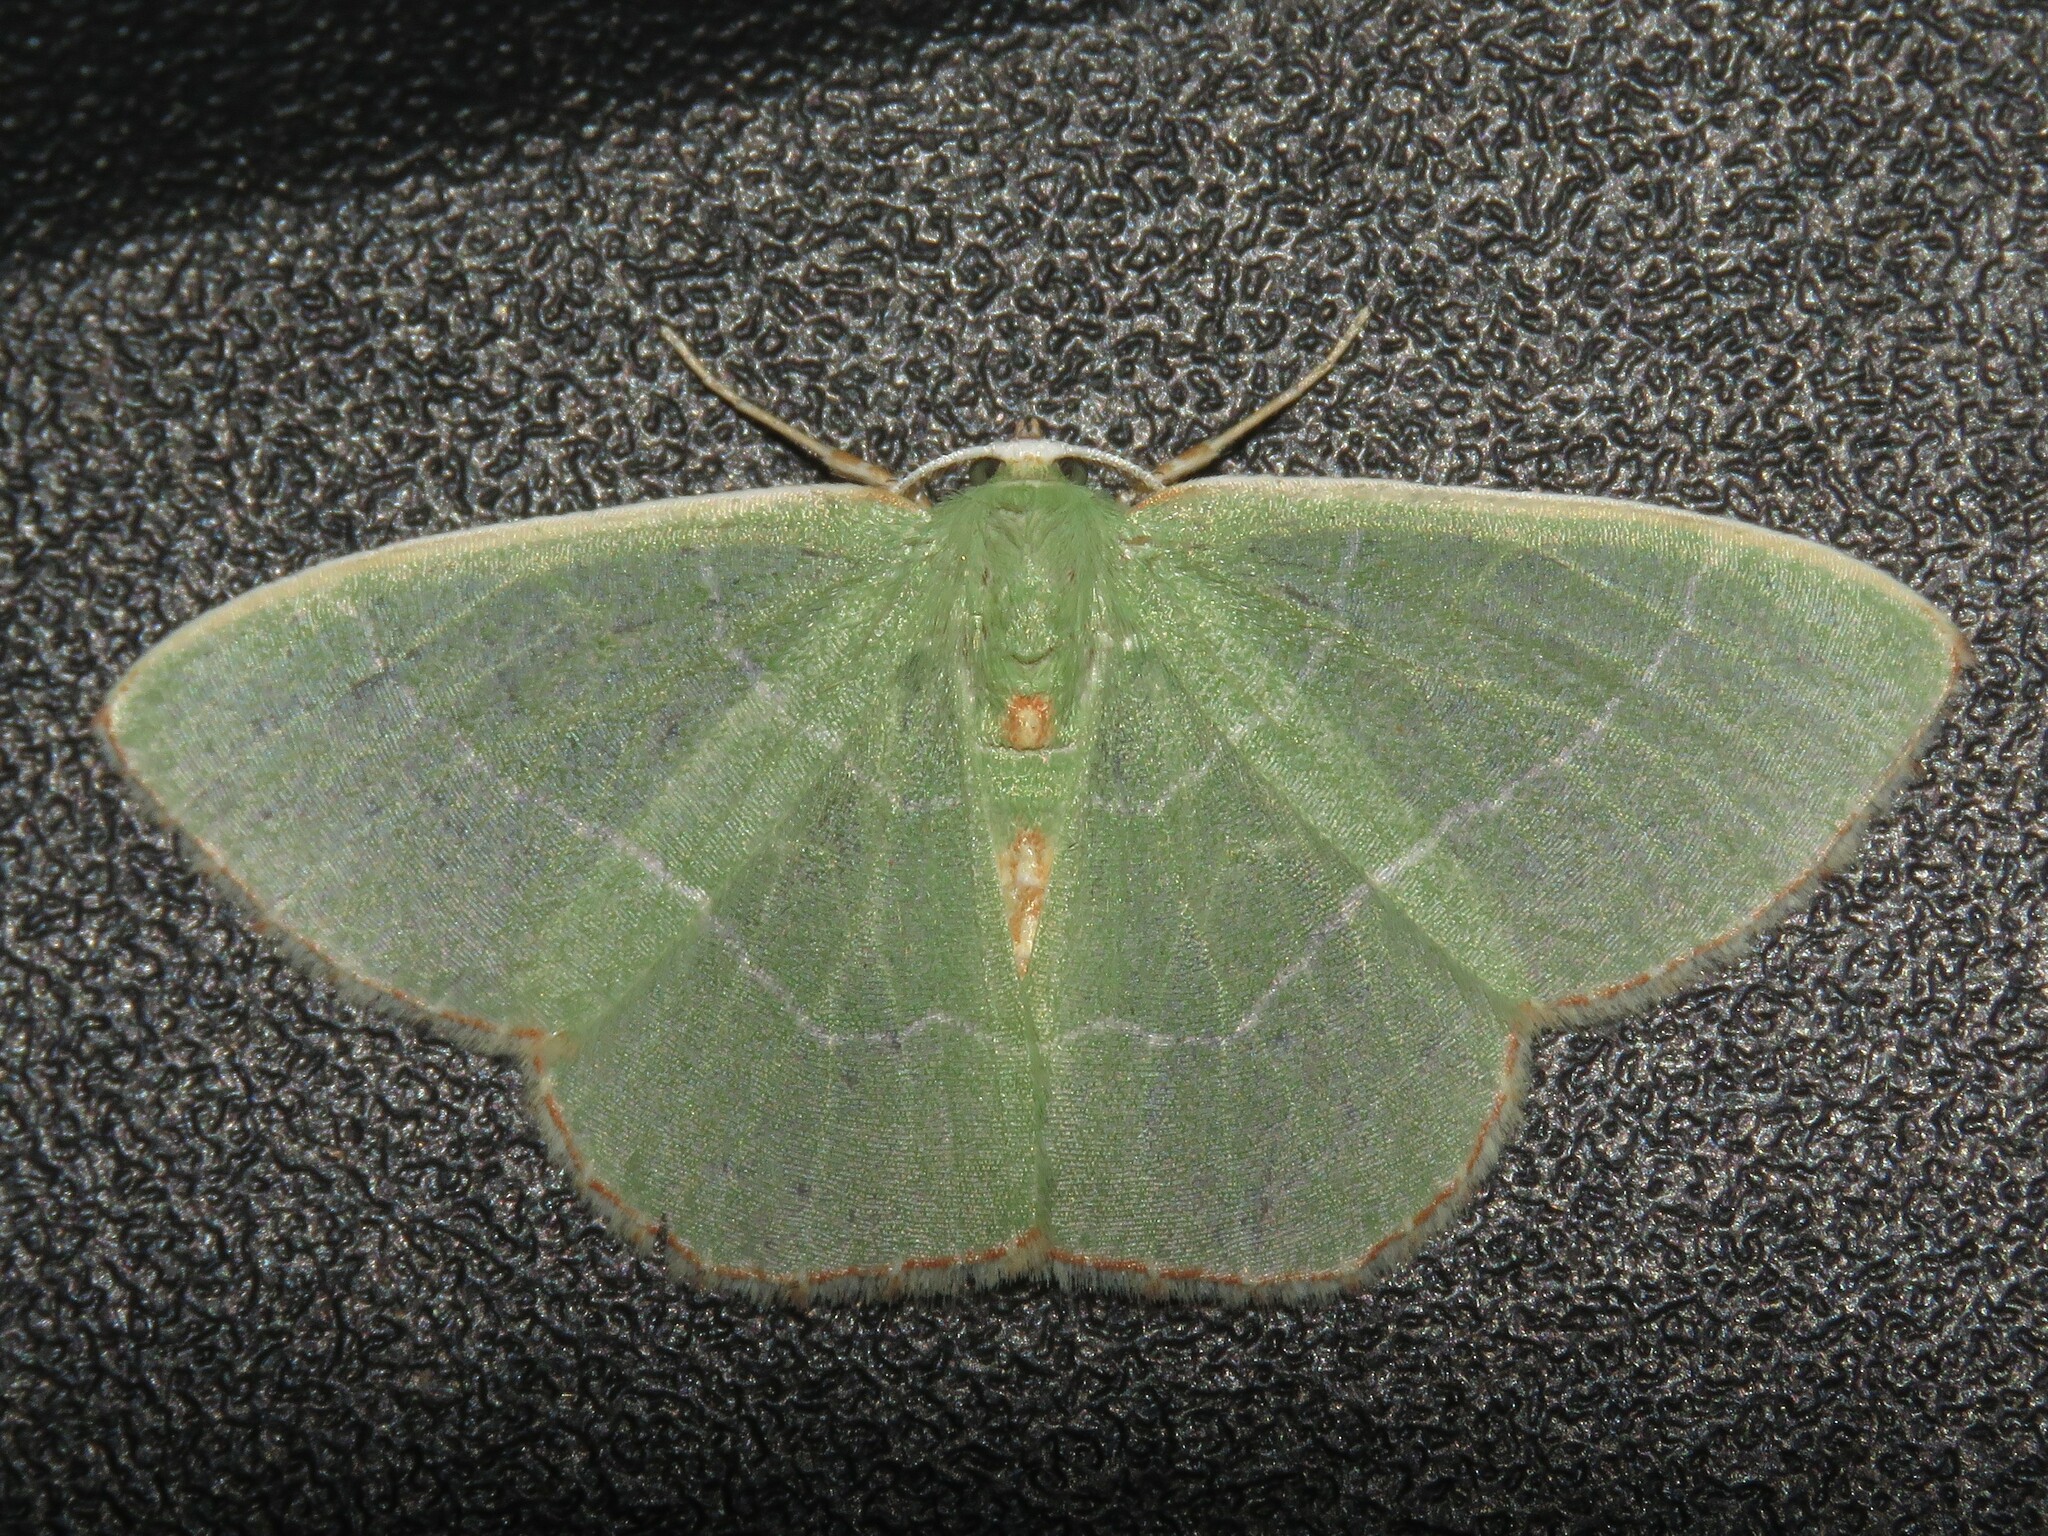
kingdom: Animalia
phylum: Arthropoda
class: Insecta
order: Lepidoptera
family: Geometridae
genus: Nemoria
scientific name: Nemoria bistriaria
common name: Red-fringed emerald
